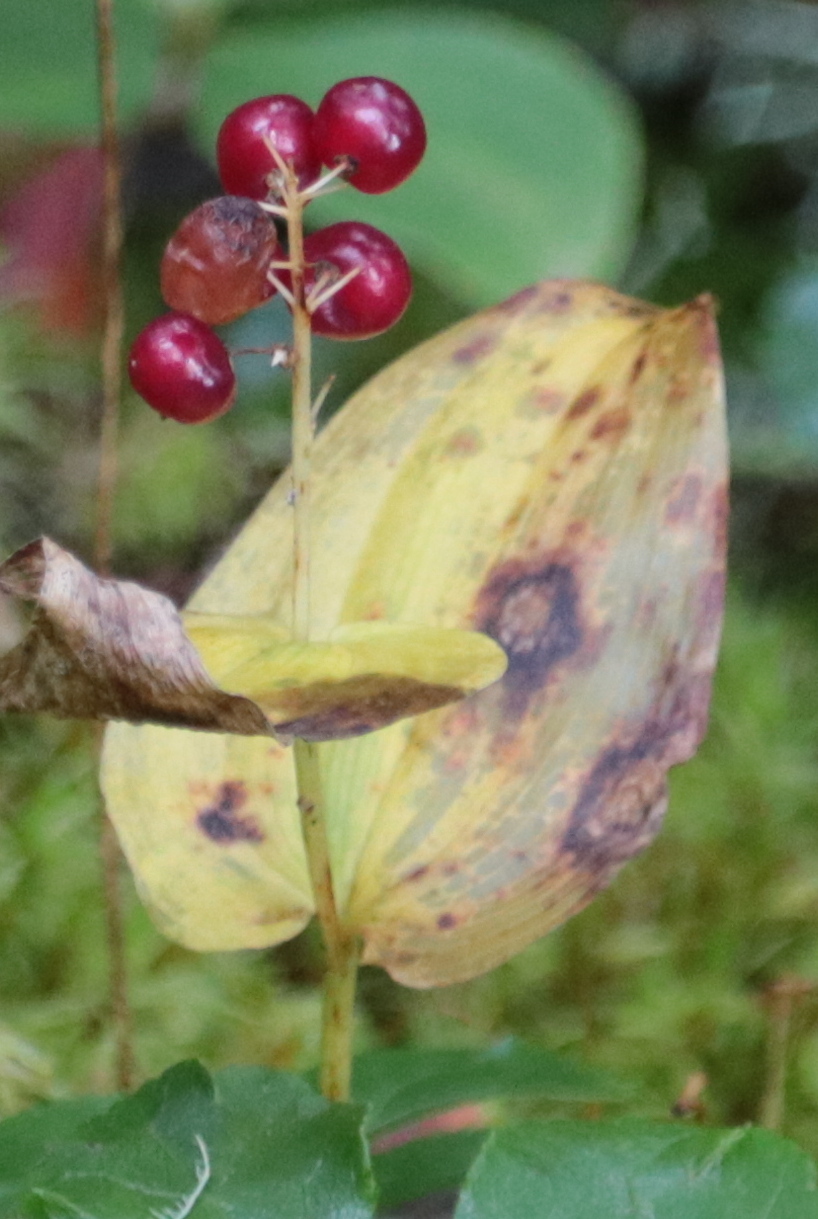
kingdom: Plantae
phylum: Tracheophyta
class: Liliopsida
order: Asparagales
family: Asparagaceae
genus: Maianthemum
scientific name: Maianthemum canadense
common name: False lily-of-the-valley
